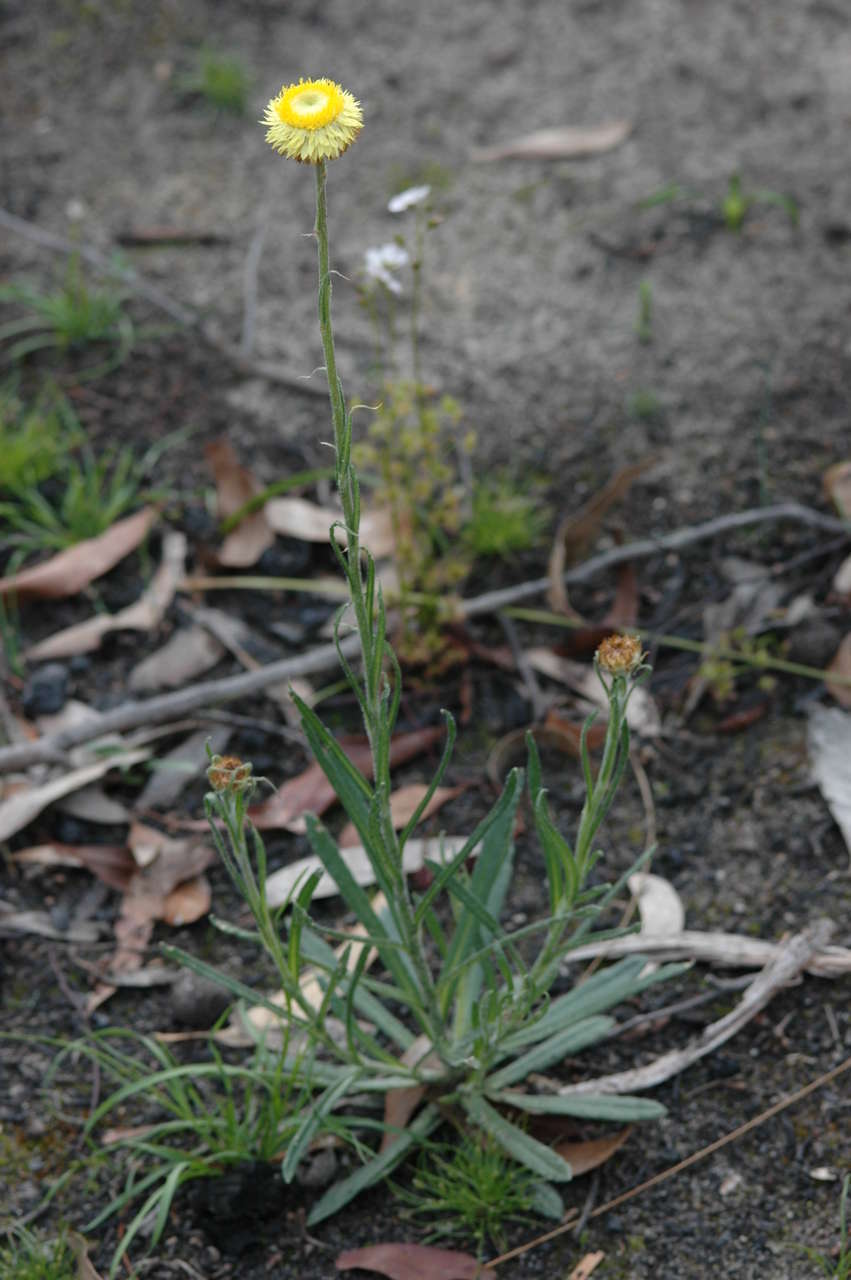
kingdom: Plantae
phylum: Tracheophyta
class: Magnoliopsida
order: Asterales
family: Asteraceae
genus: Coronidium
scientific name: Coronidium scorpioides
